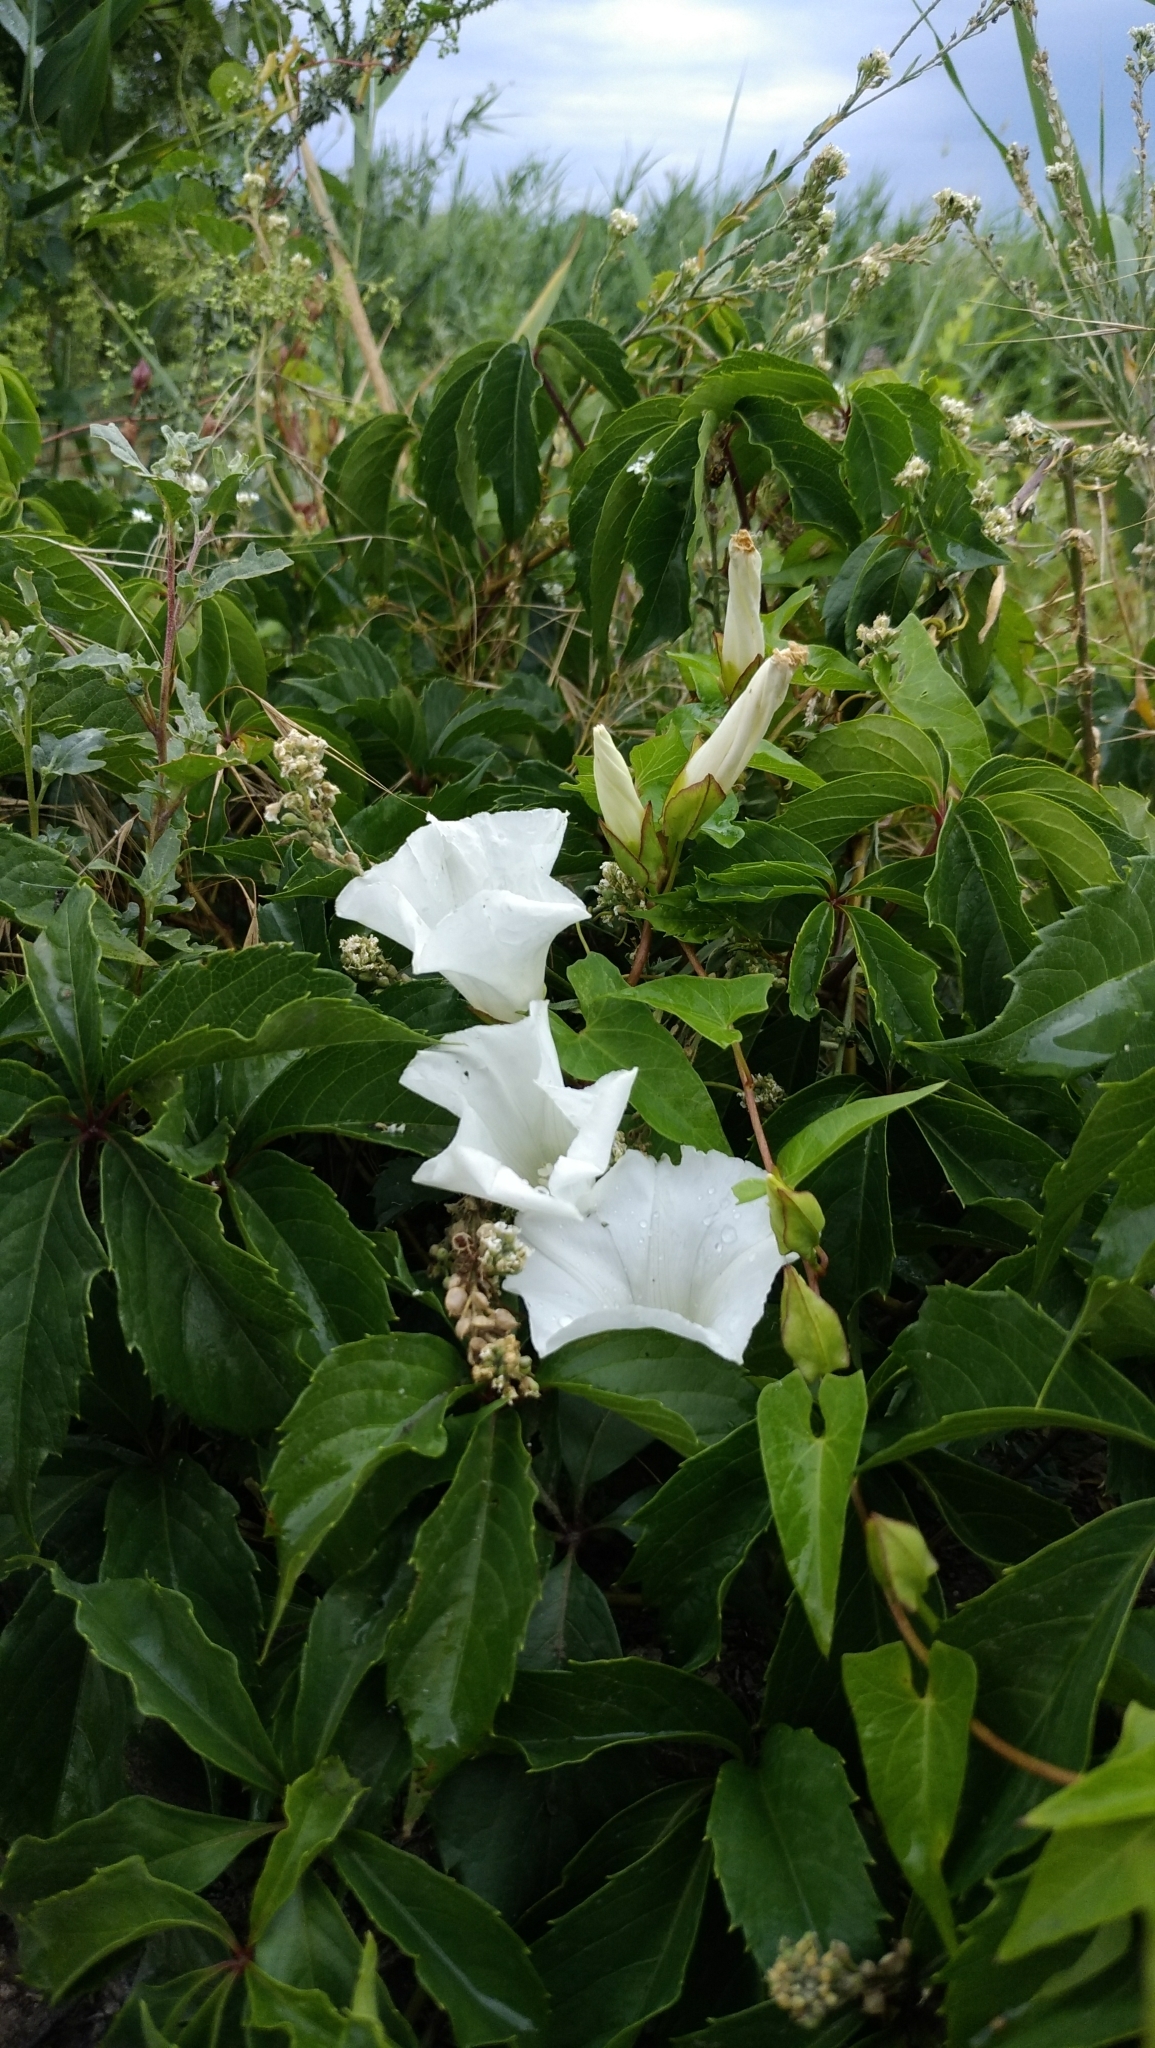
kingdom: Plantae
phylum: Tracheophyta
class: Magnoliopsida
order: Solanales
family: Convolvulaceae
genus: Calystegia
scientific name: Calystegia sepium
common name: Hedge bindweed
